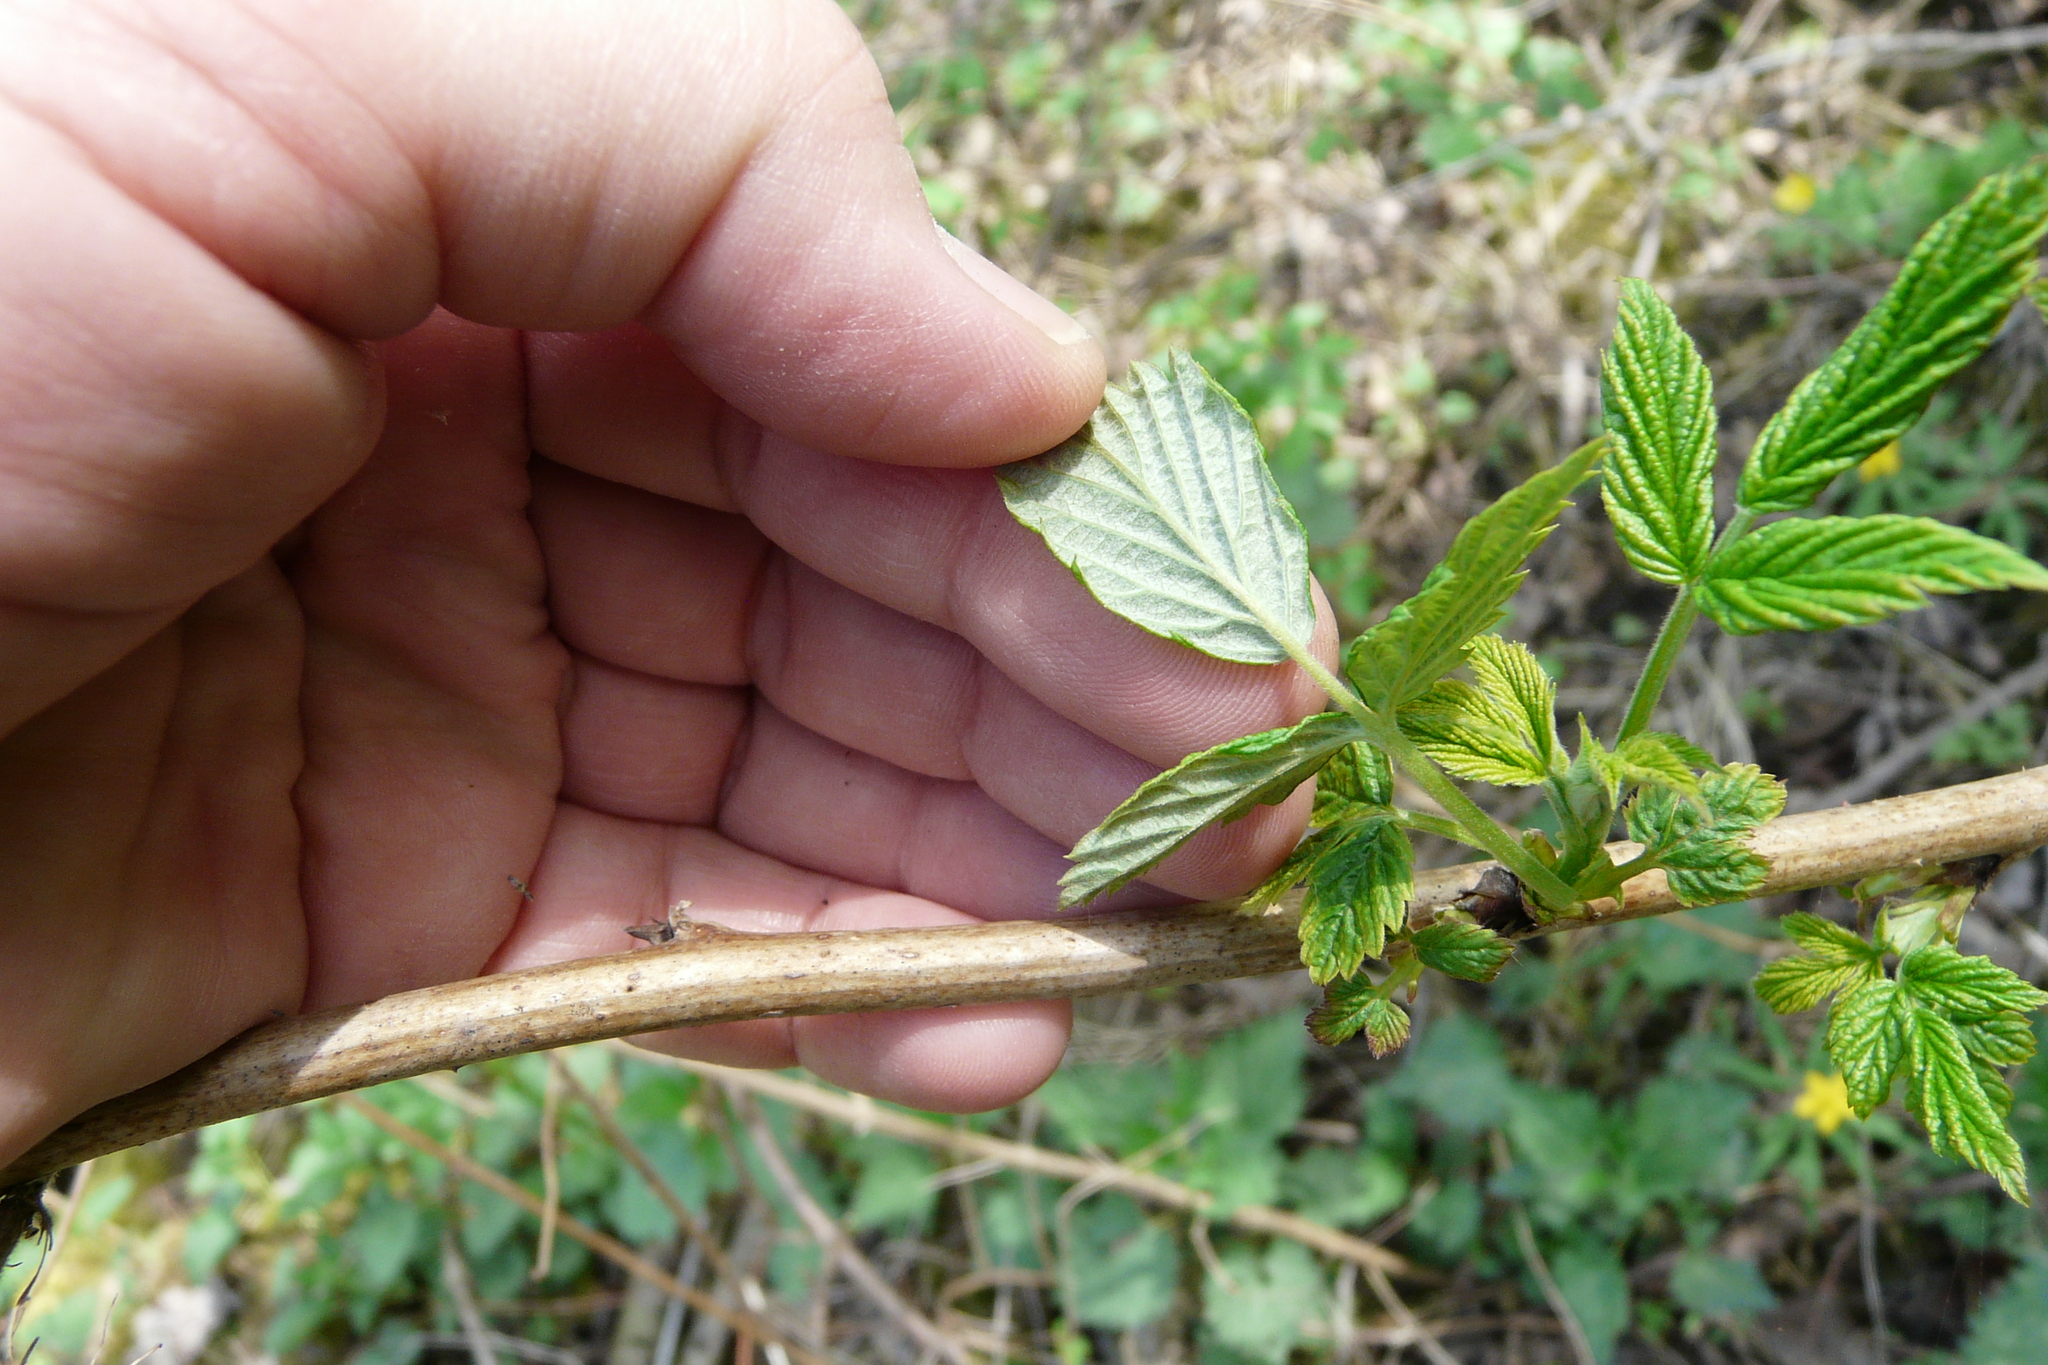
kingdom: Plantae
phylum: Tracheophyta
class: Magnoliopsida
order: Rosales
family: Rosaceae
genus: Rubus
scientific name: Rubus idaeus
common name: Raspberry
